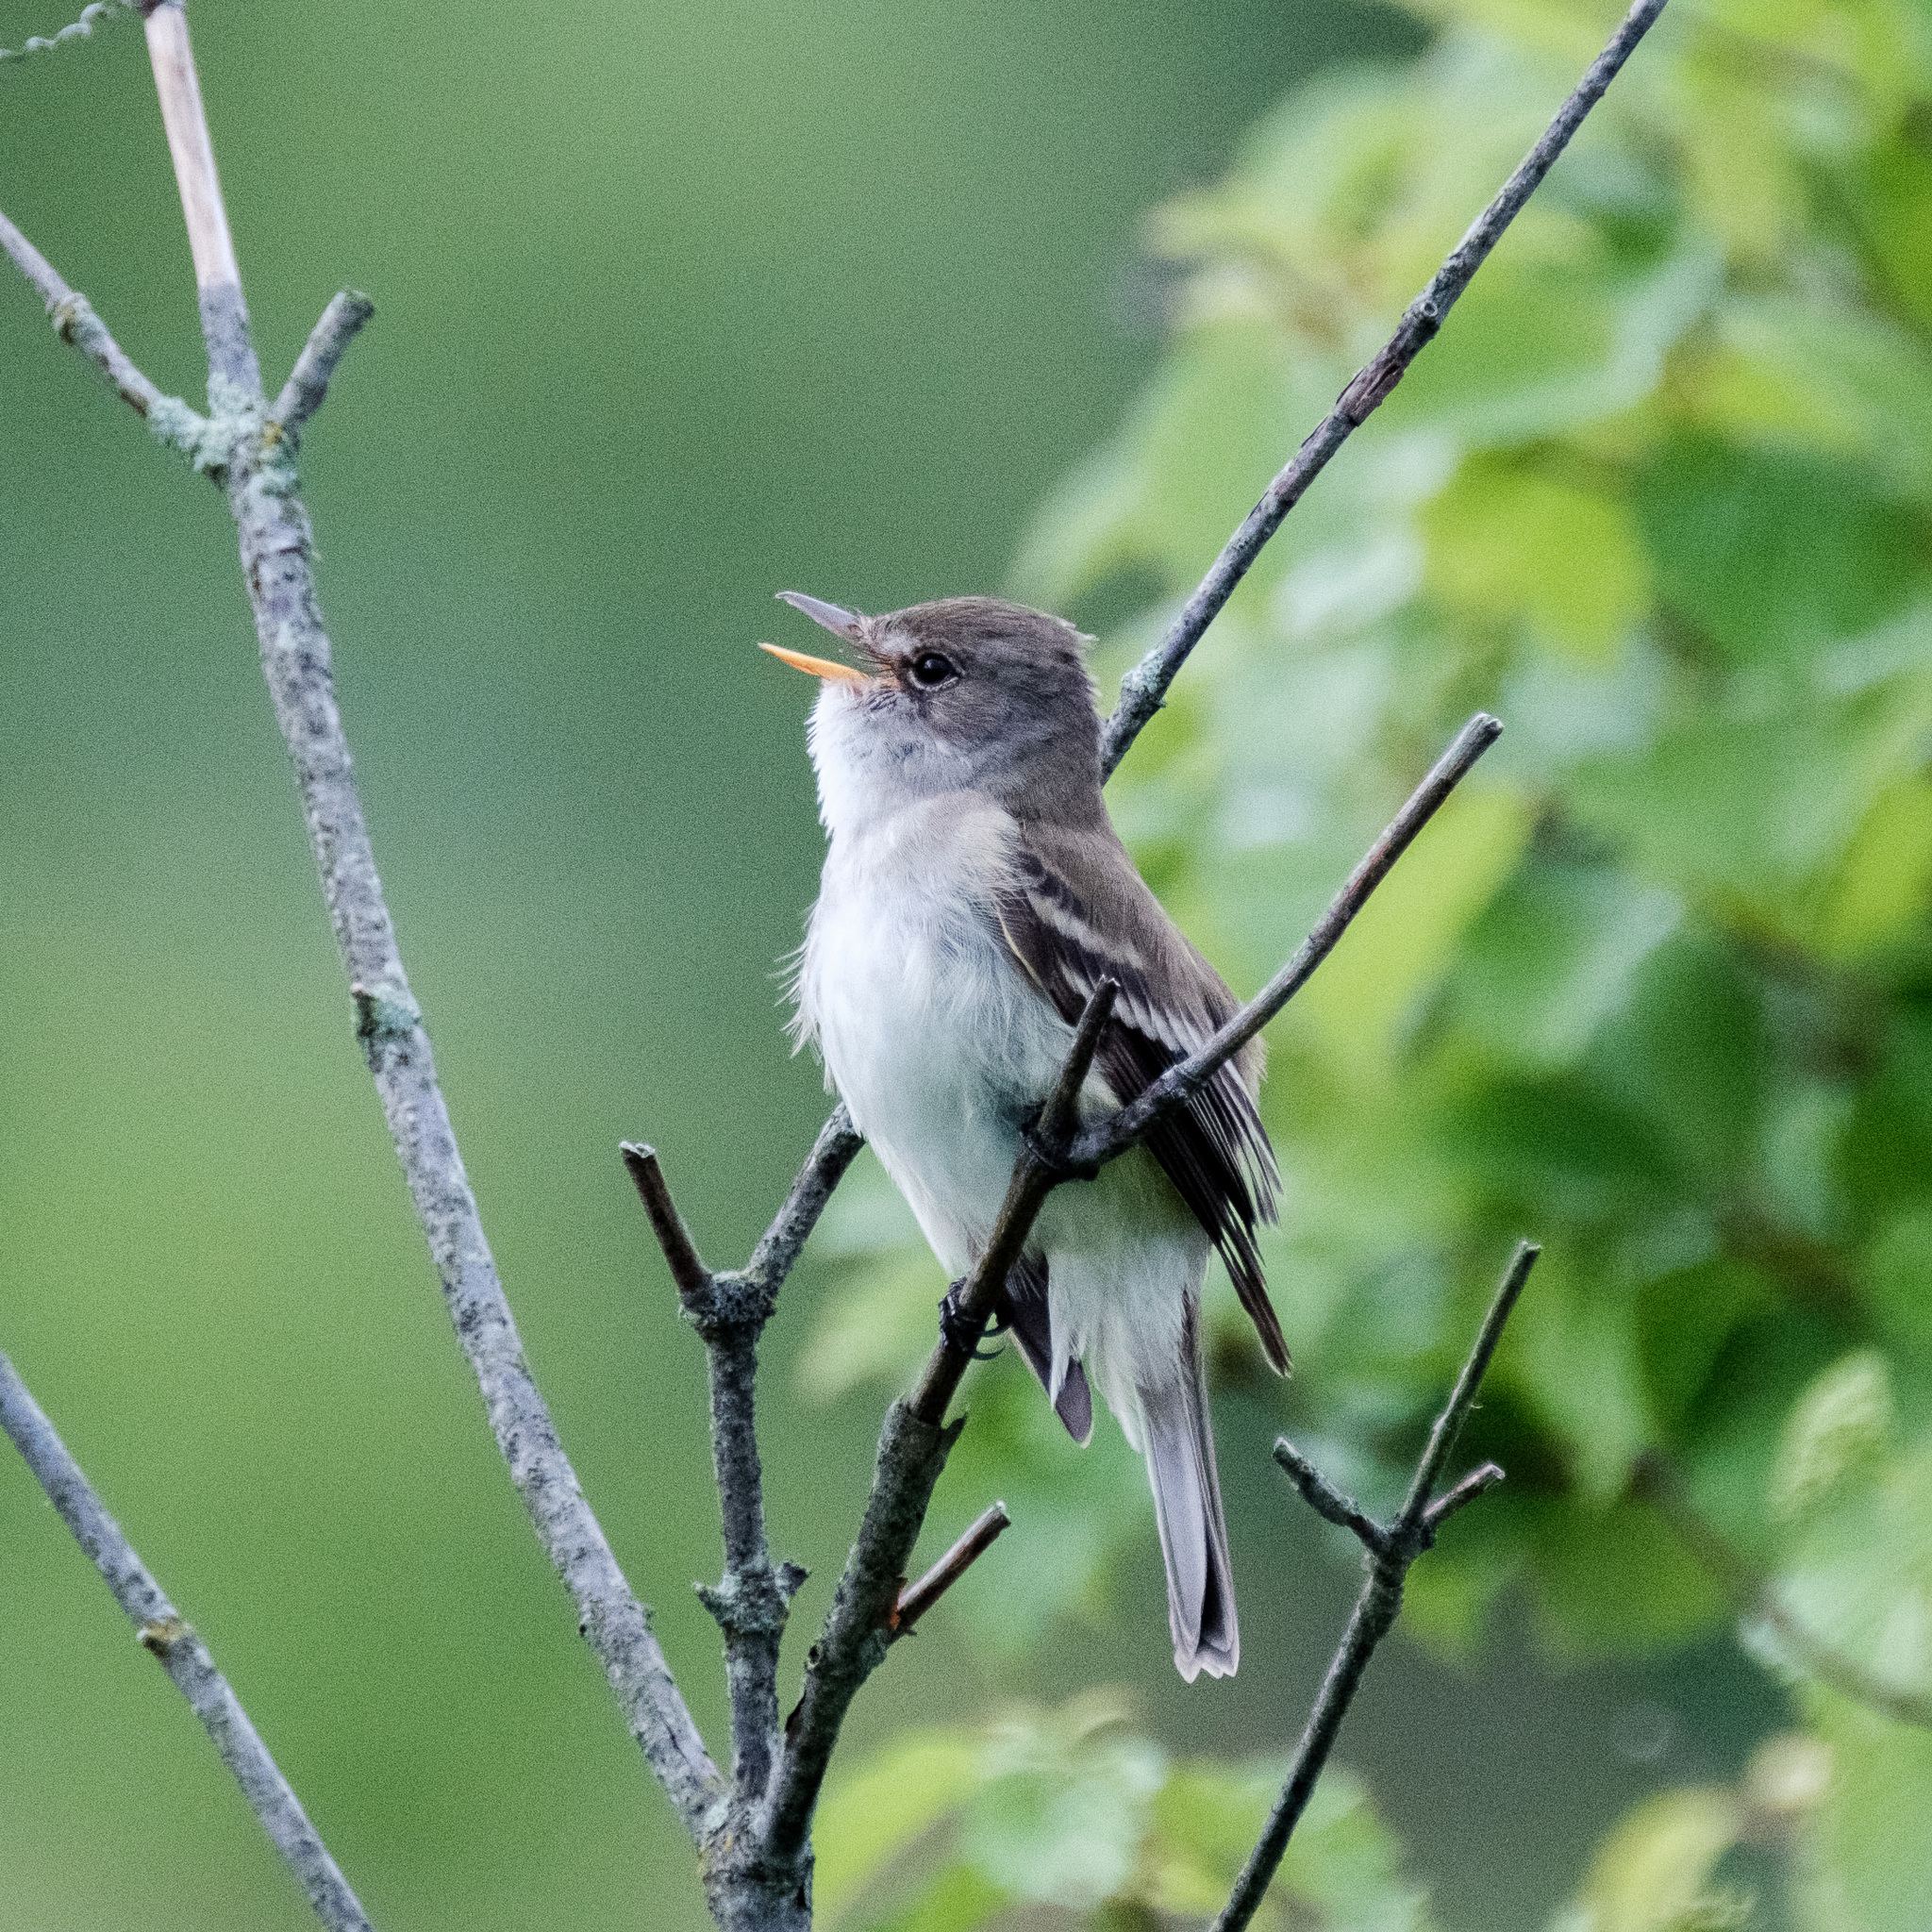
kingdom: Animalia
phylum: Chordata
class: Aves
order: Passeriformes
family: Tyrannidae
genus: Empidonax
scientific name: Empidonax traillii
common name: Willow flycatcher
